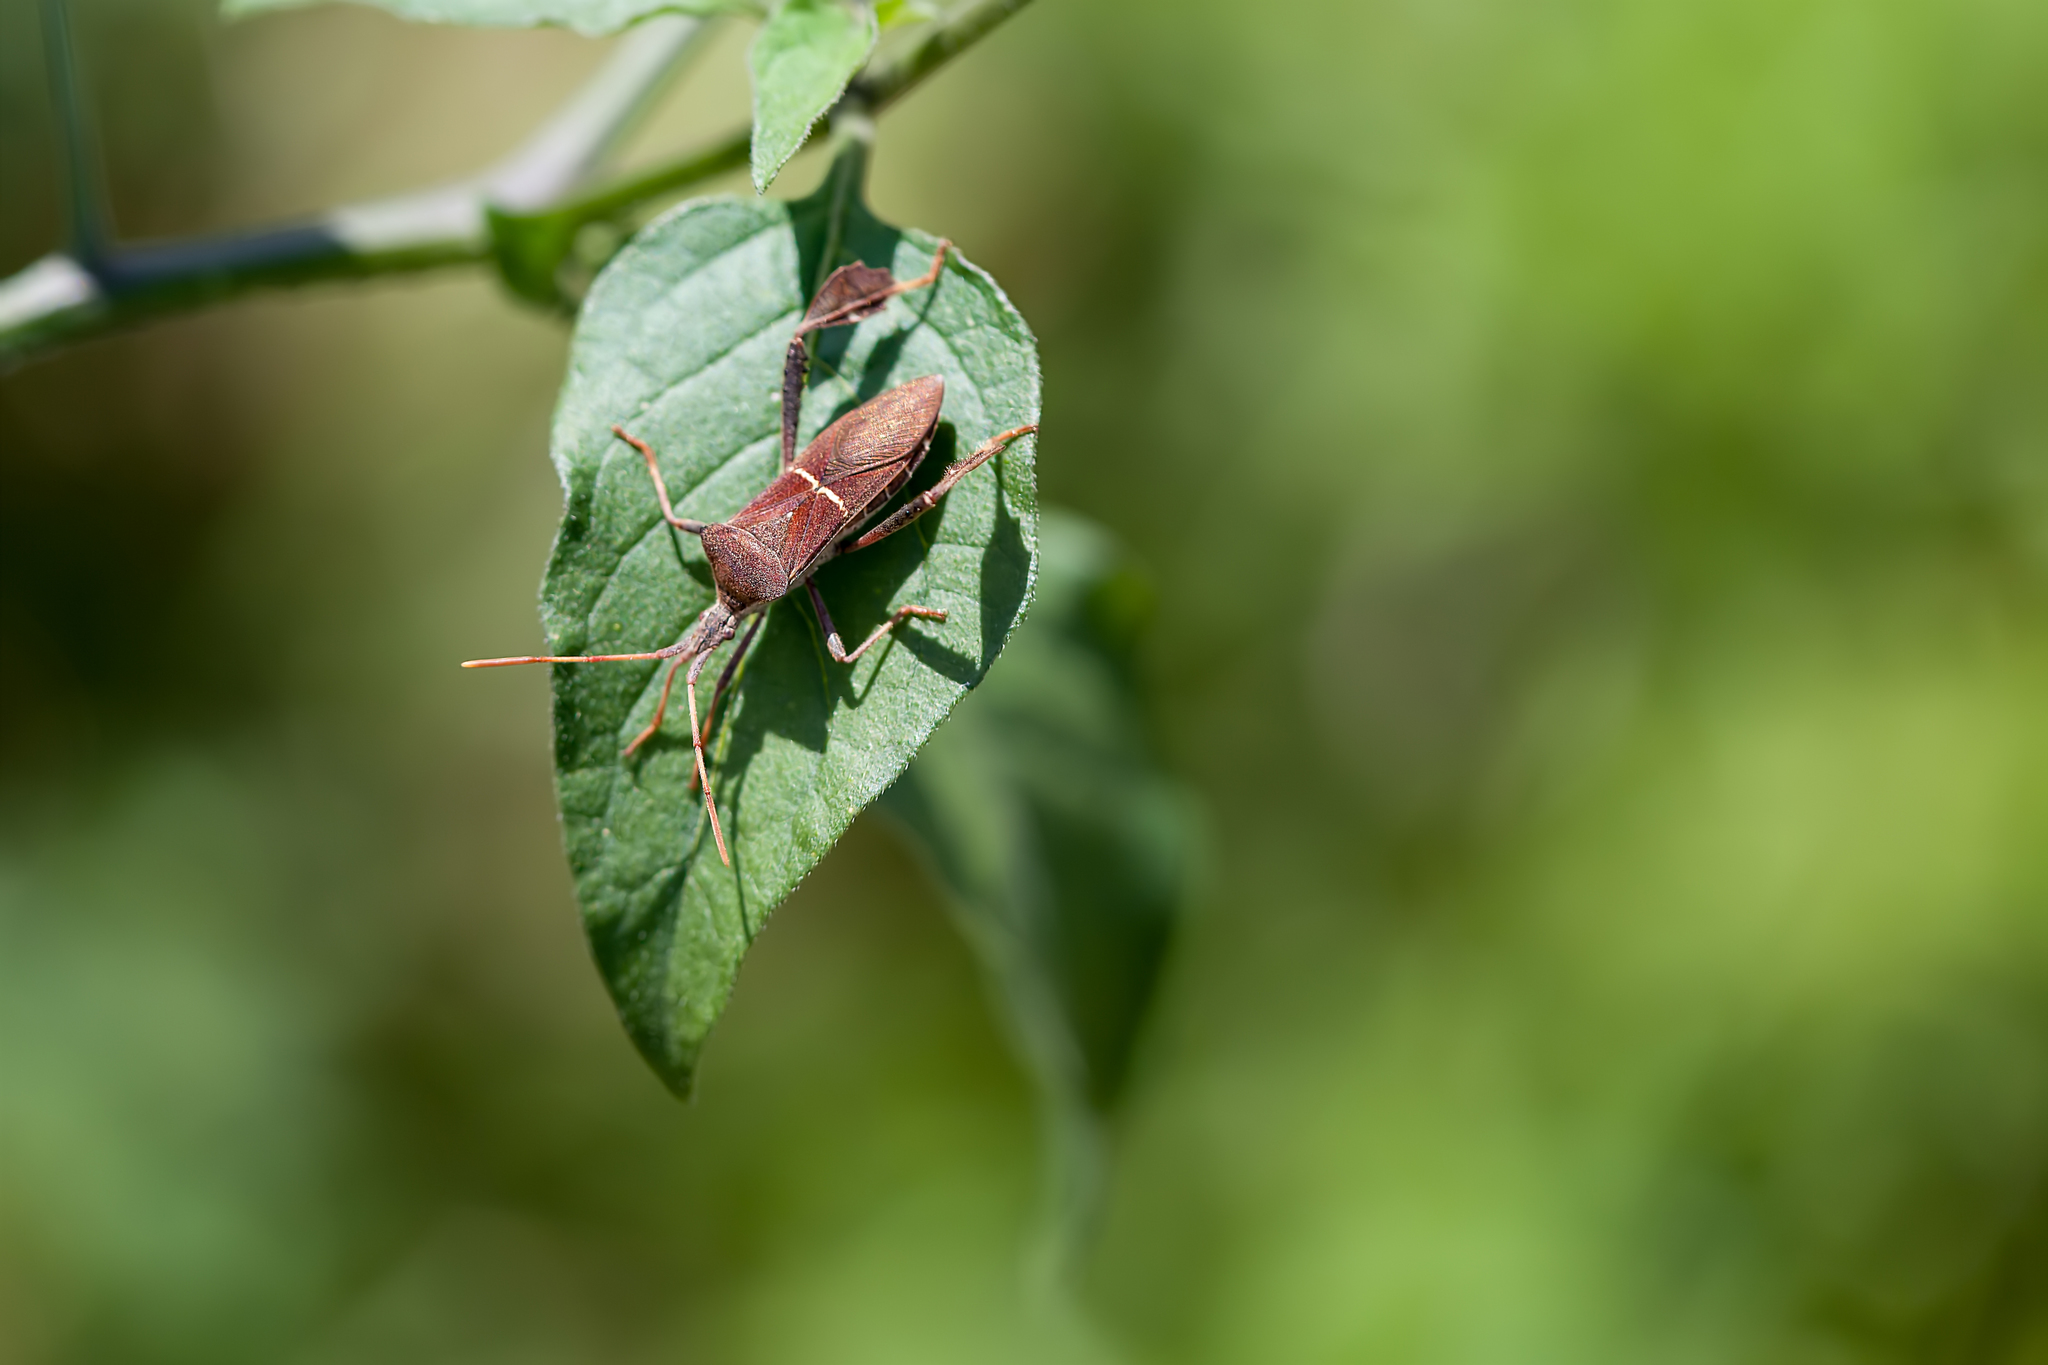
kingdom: Animalia
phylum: Arthropoda
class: Insecta
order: Hemiptera
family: Coreidae
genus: Leptoglossus
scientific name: Leptoglossus phyllopus
